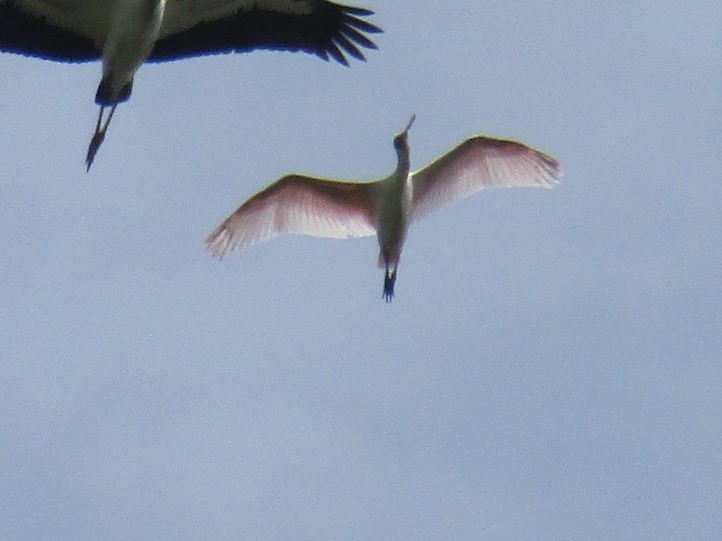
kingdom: Animalia
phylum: Chordata
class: Aves
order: Pelecaniformes
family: Threskiornithidae
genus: Platalea
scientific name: Platalea ajaja
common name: Roseate spoonbill
